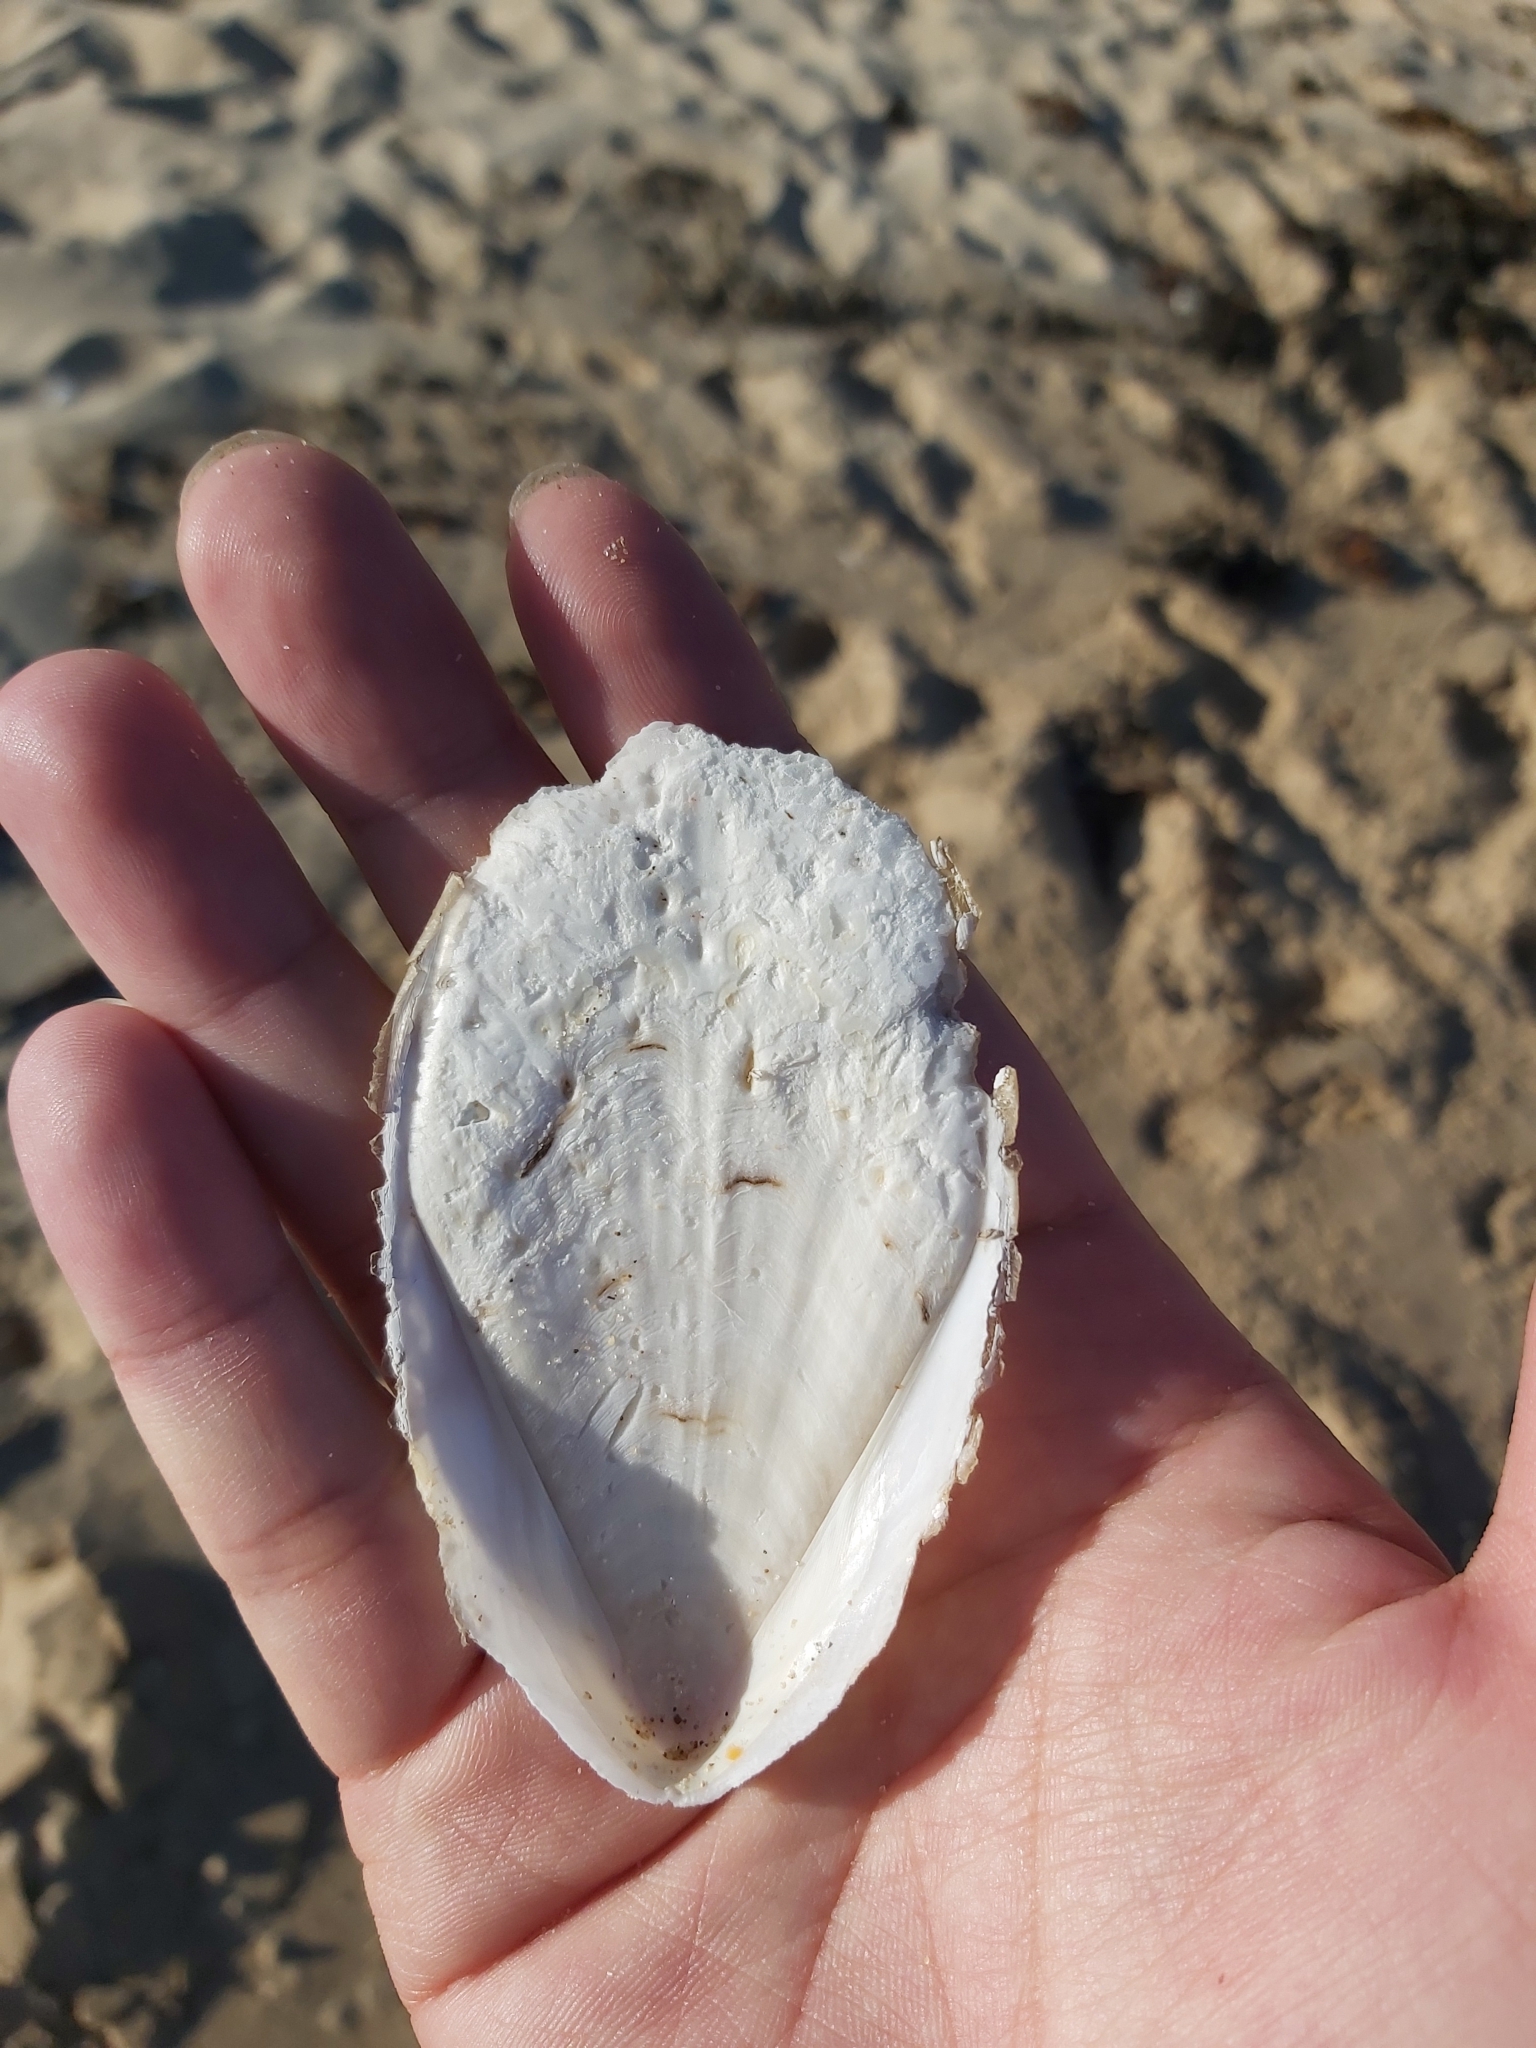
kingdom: Animalia
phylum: Mollusca
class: Cephalopoda
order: Sepiida
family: Sepiidae
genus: Ascarosepion
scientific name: Ascarosepion mestus
